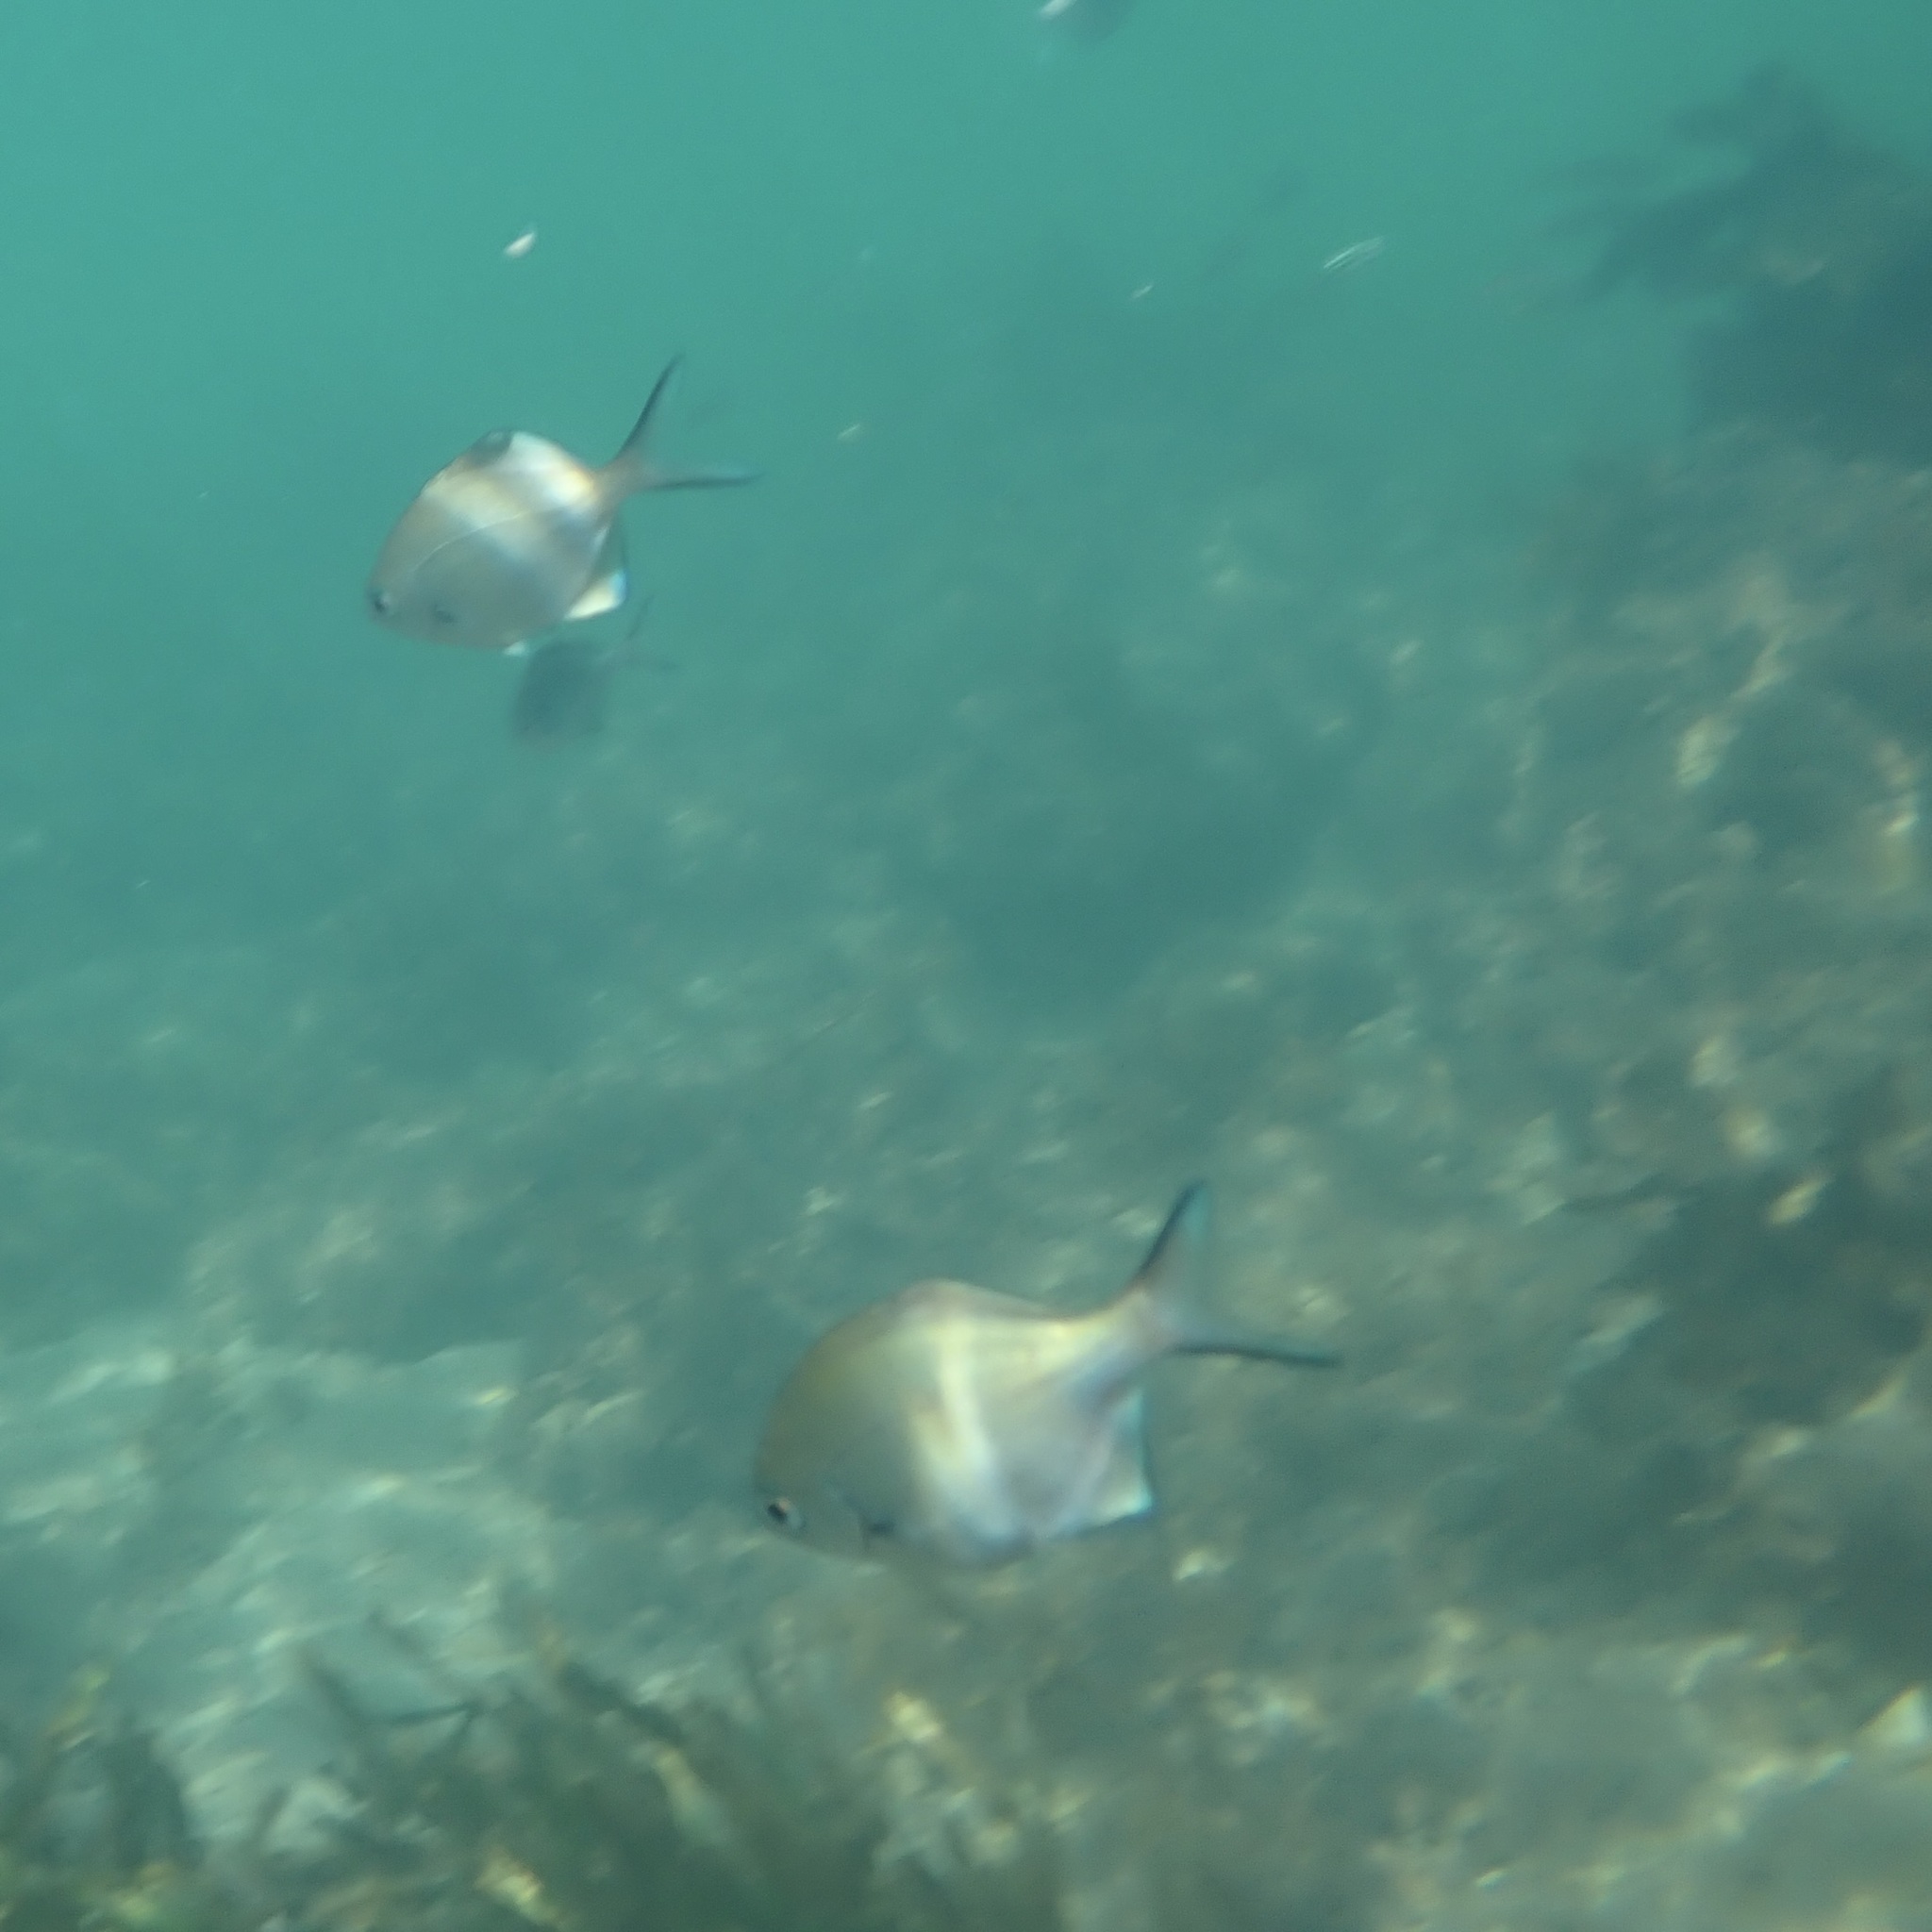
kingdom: Animalia
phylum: Chordata
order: Perciformes
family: Kyphosidae
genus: Scorpis
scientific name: Scorpis lineolata
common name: Sweep
